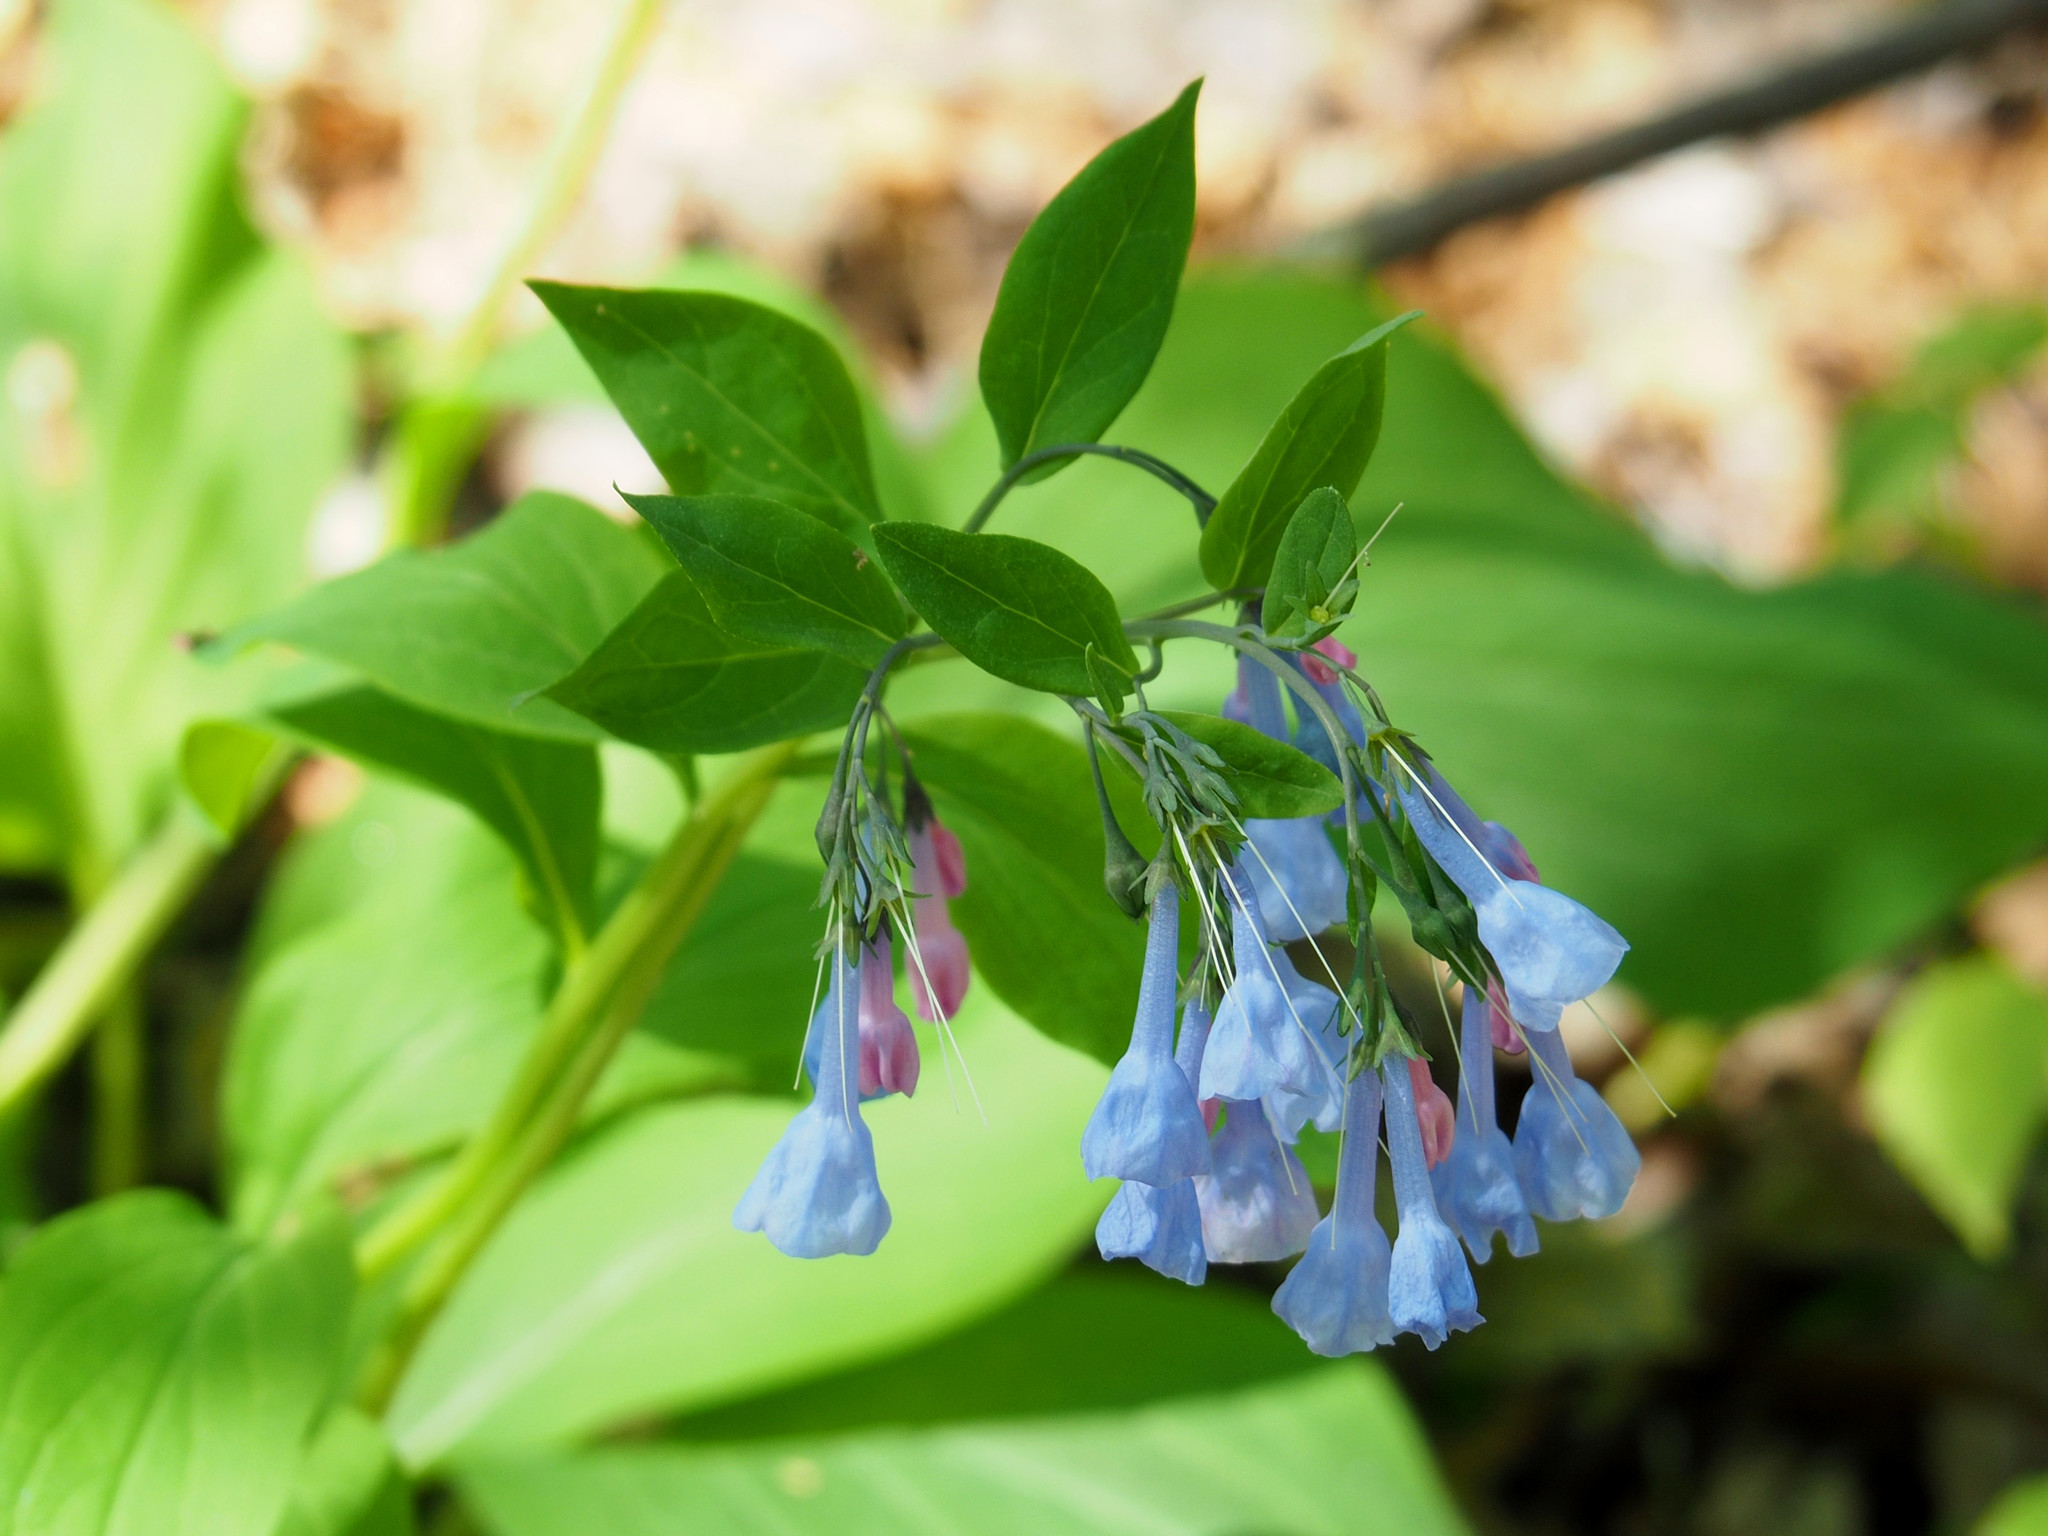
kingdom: Plantae
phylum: Tracheophyta
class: Magnoliopsida
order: Boraginales
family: Boraginaceae
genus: Mertensia
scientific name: Mertensia virginica
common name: Virginia bluebells
